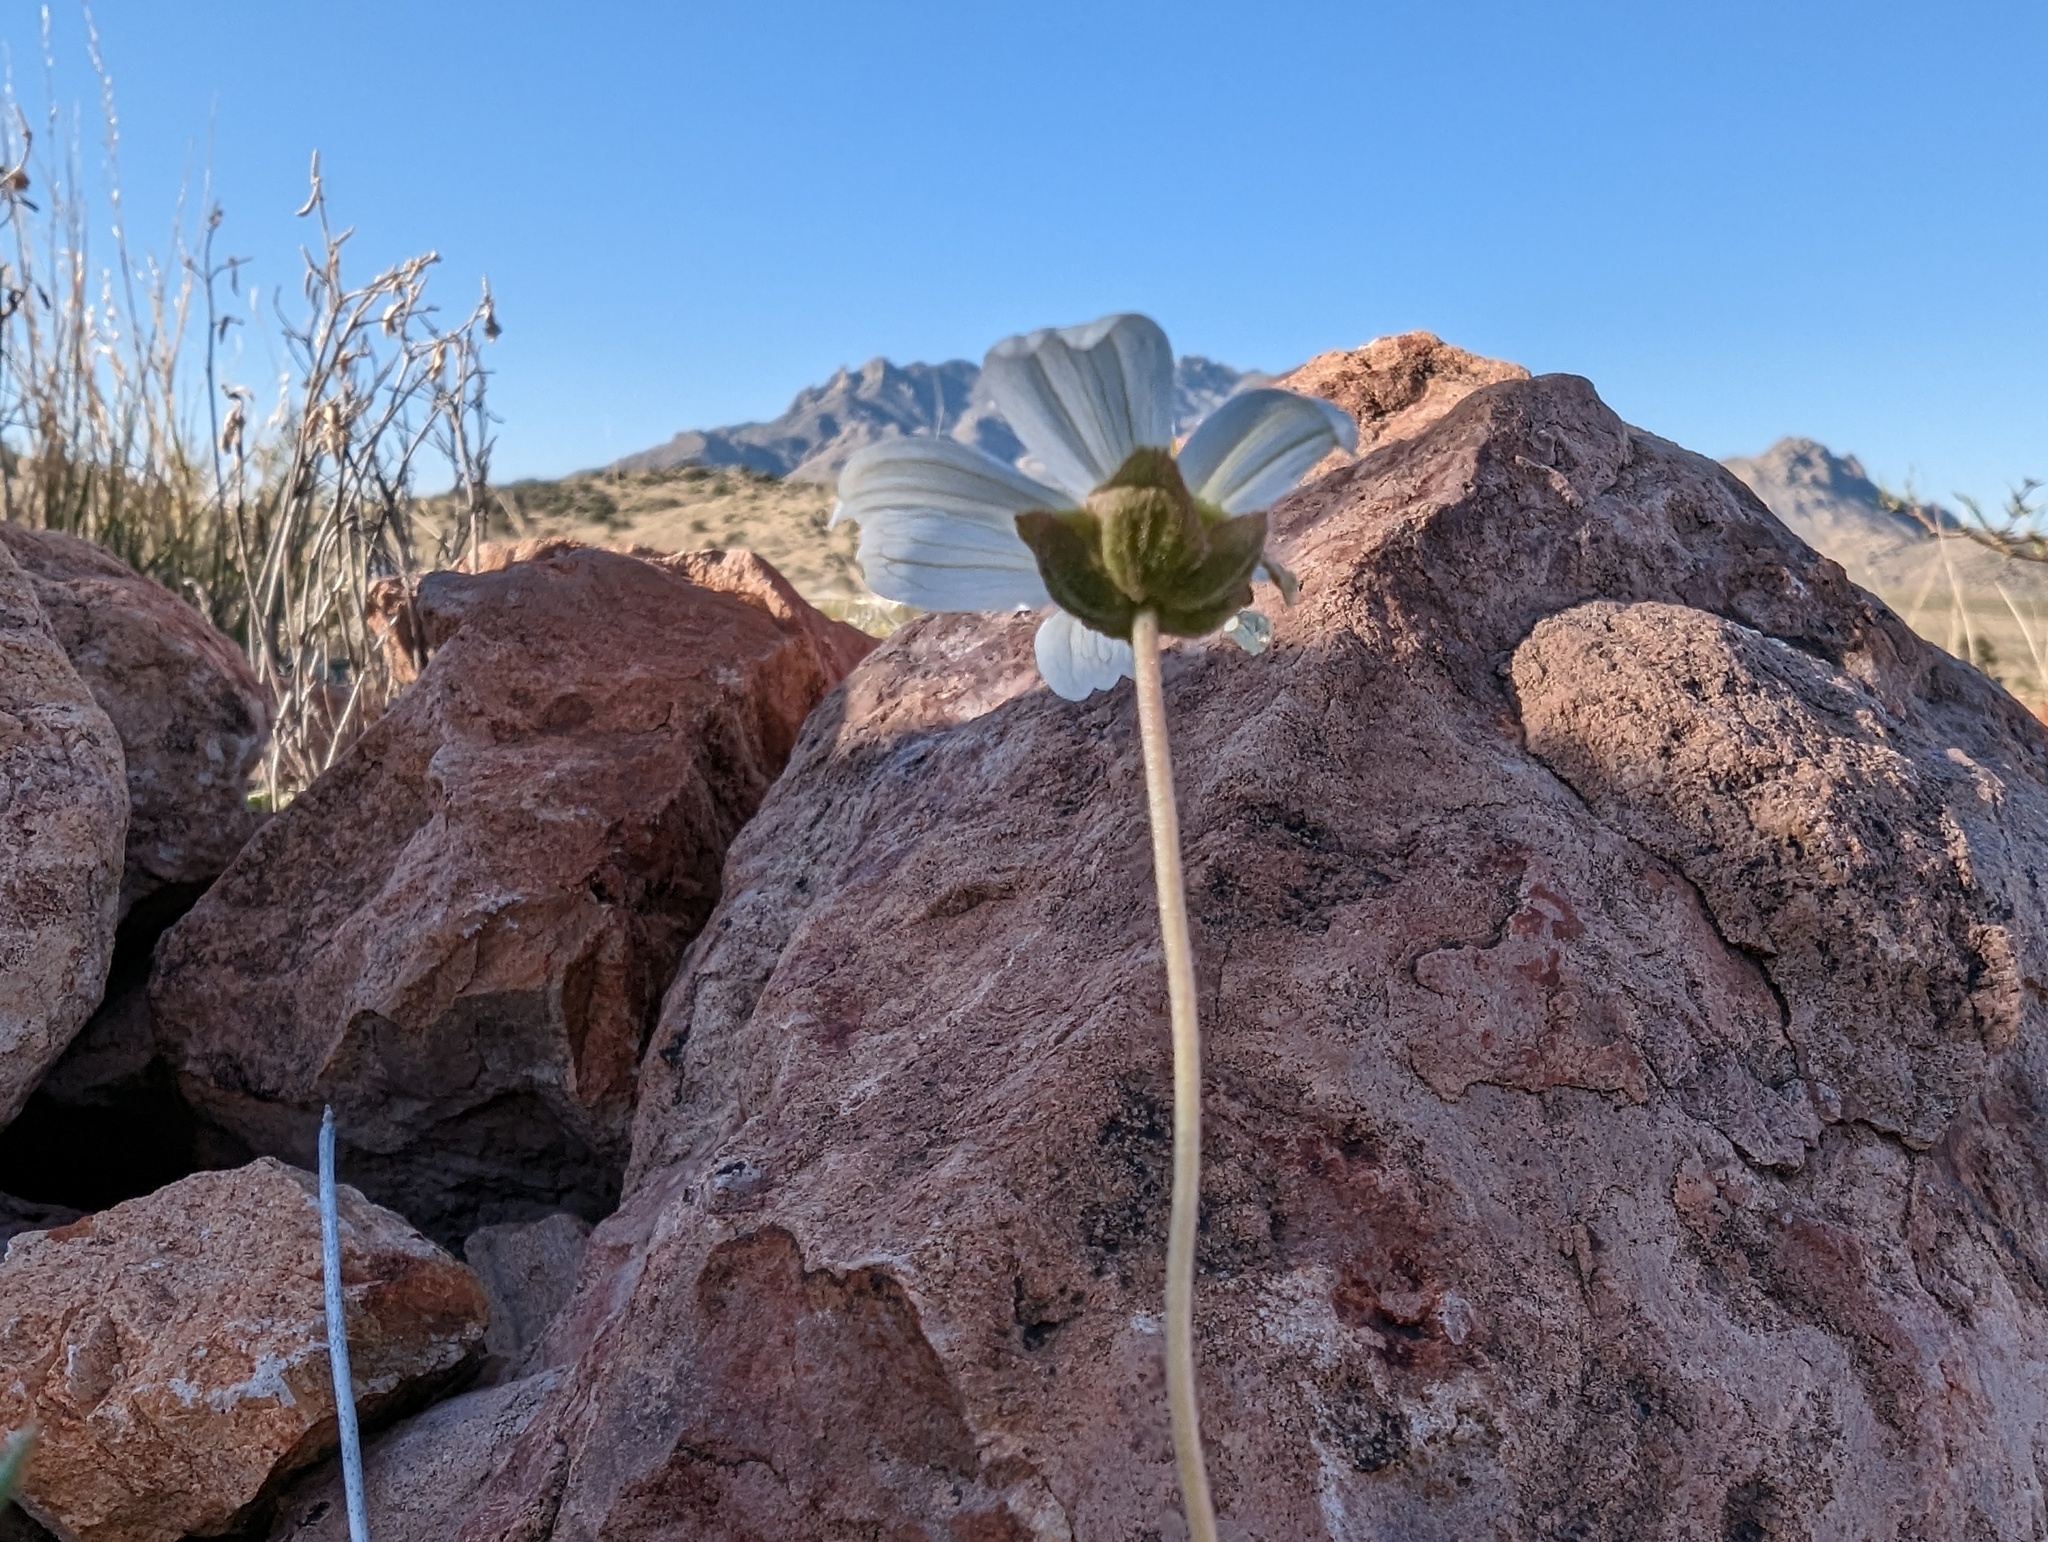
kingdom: Plantae
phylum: Tracheophyta
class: Magnoliopsida
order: Asterales
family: Asteraceae
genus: Melampodium
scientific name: Melampodium leucanthum
